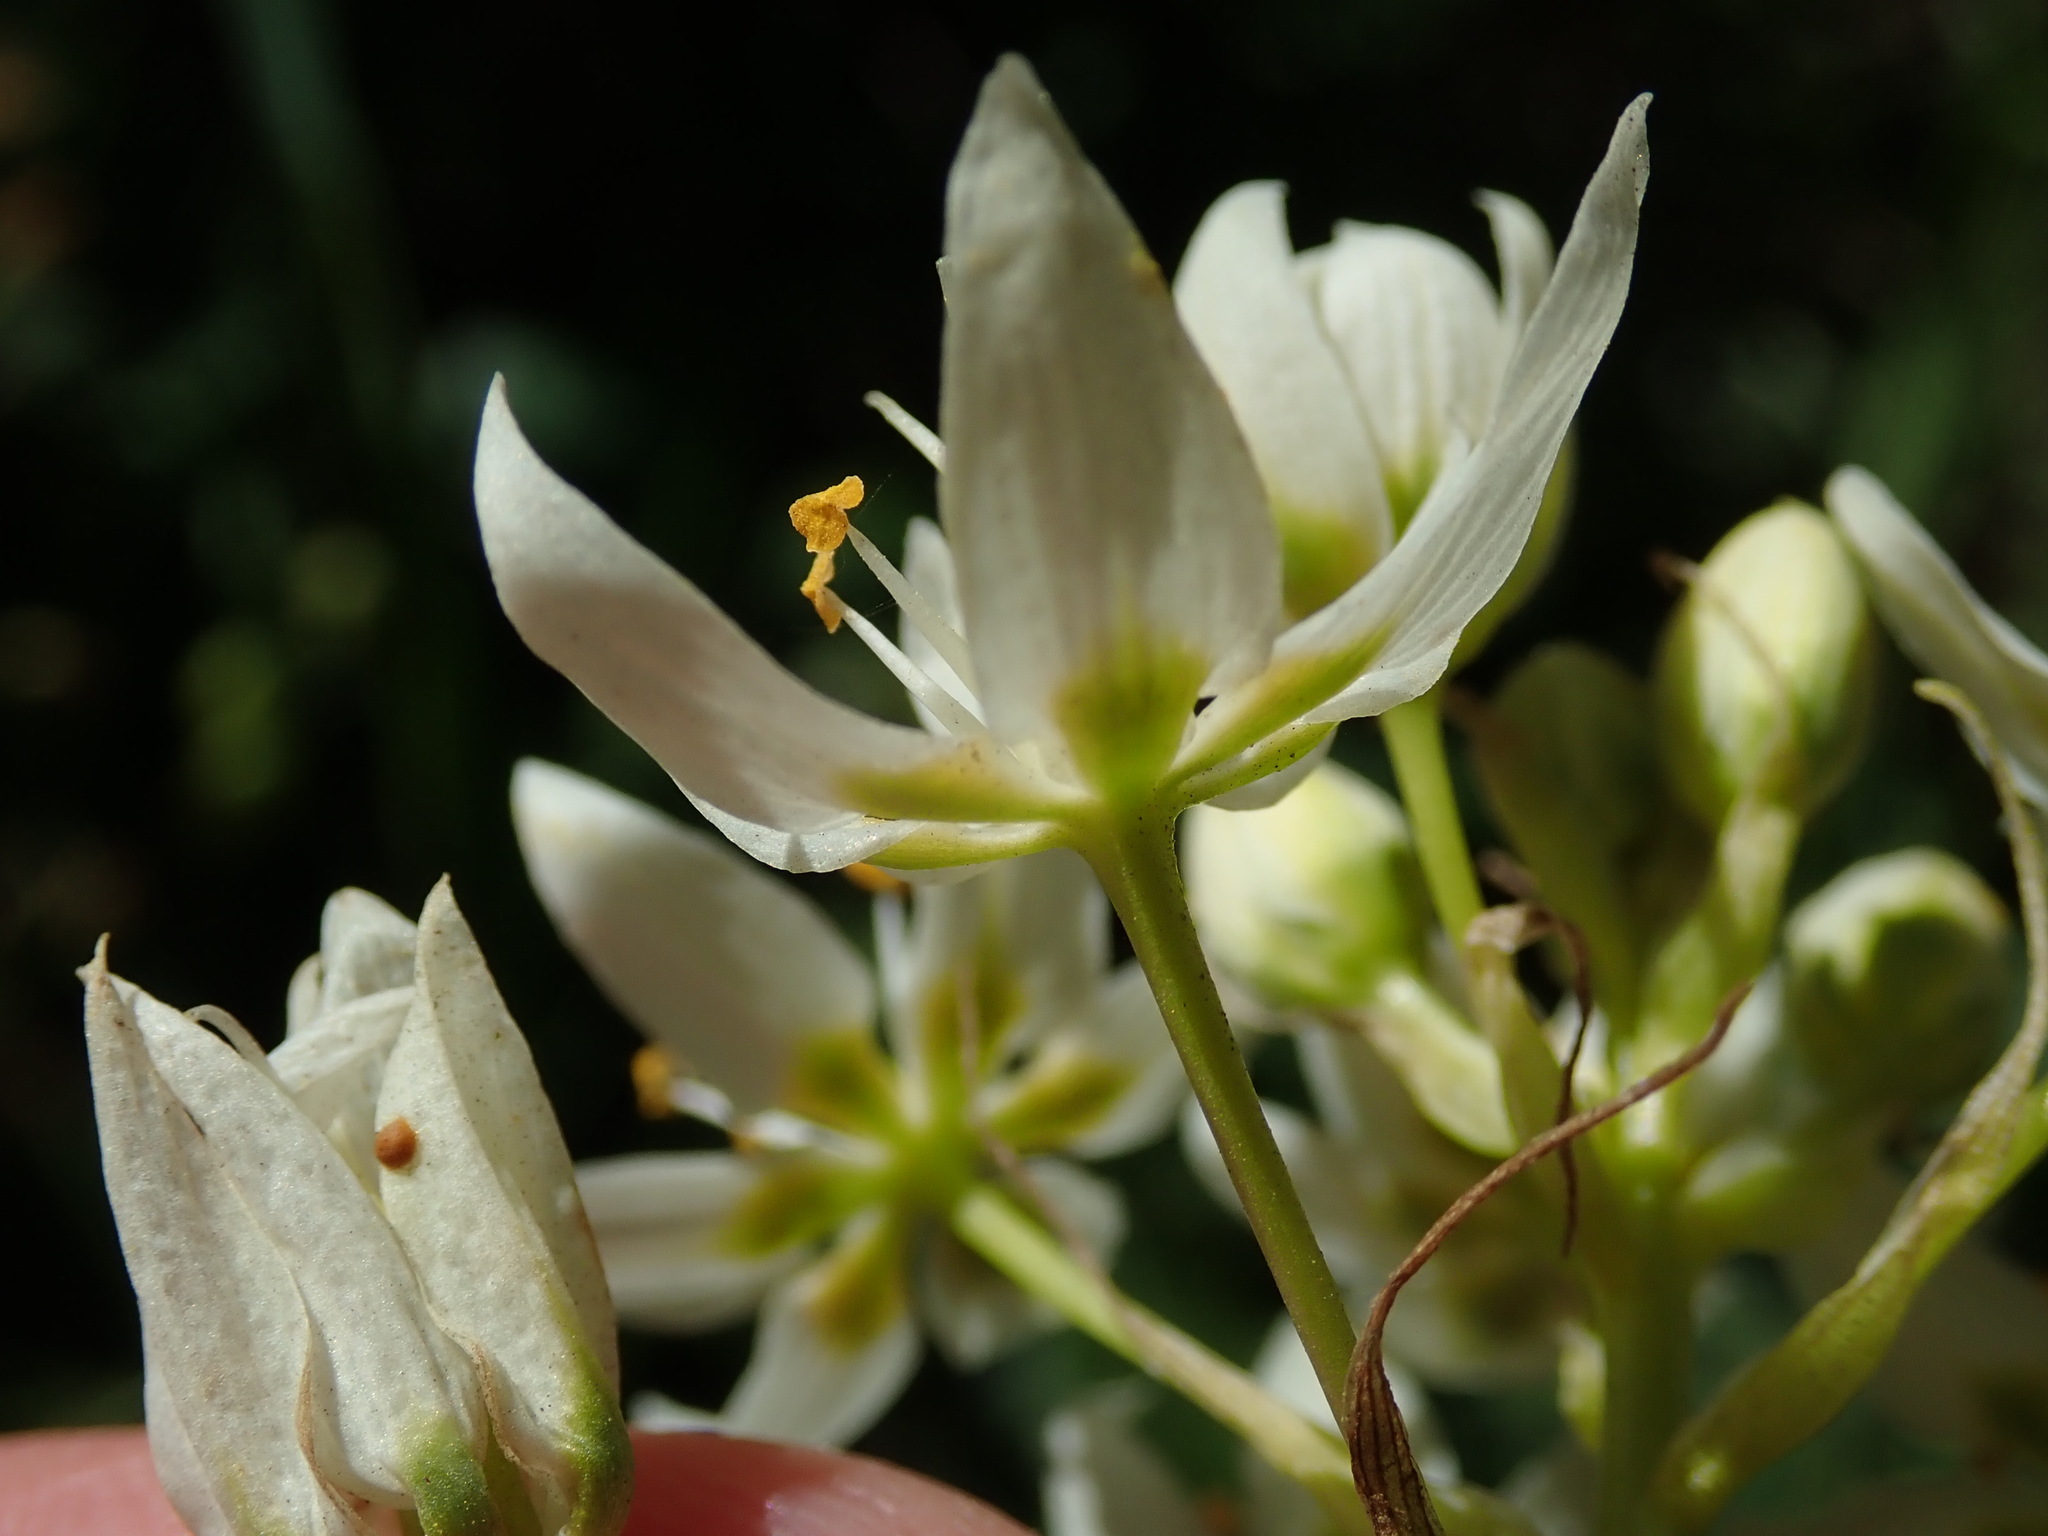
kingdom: Plantae
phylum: Tracheophyta
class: Liliopsida
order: Liliales
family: Melanthiaceae
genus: Toxicoscordion
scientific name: Toxicoscordion fremontii
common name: Fremont's death camas
